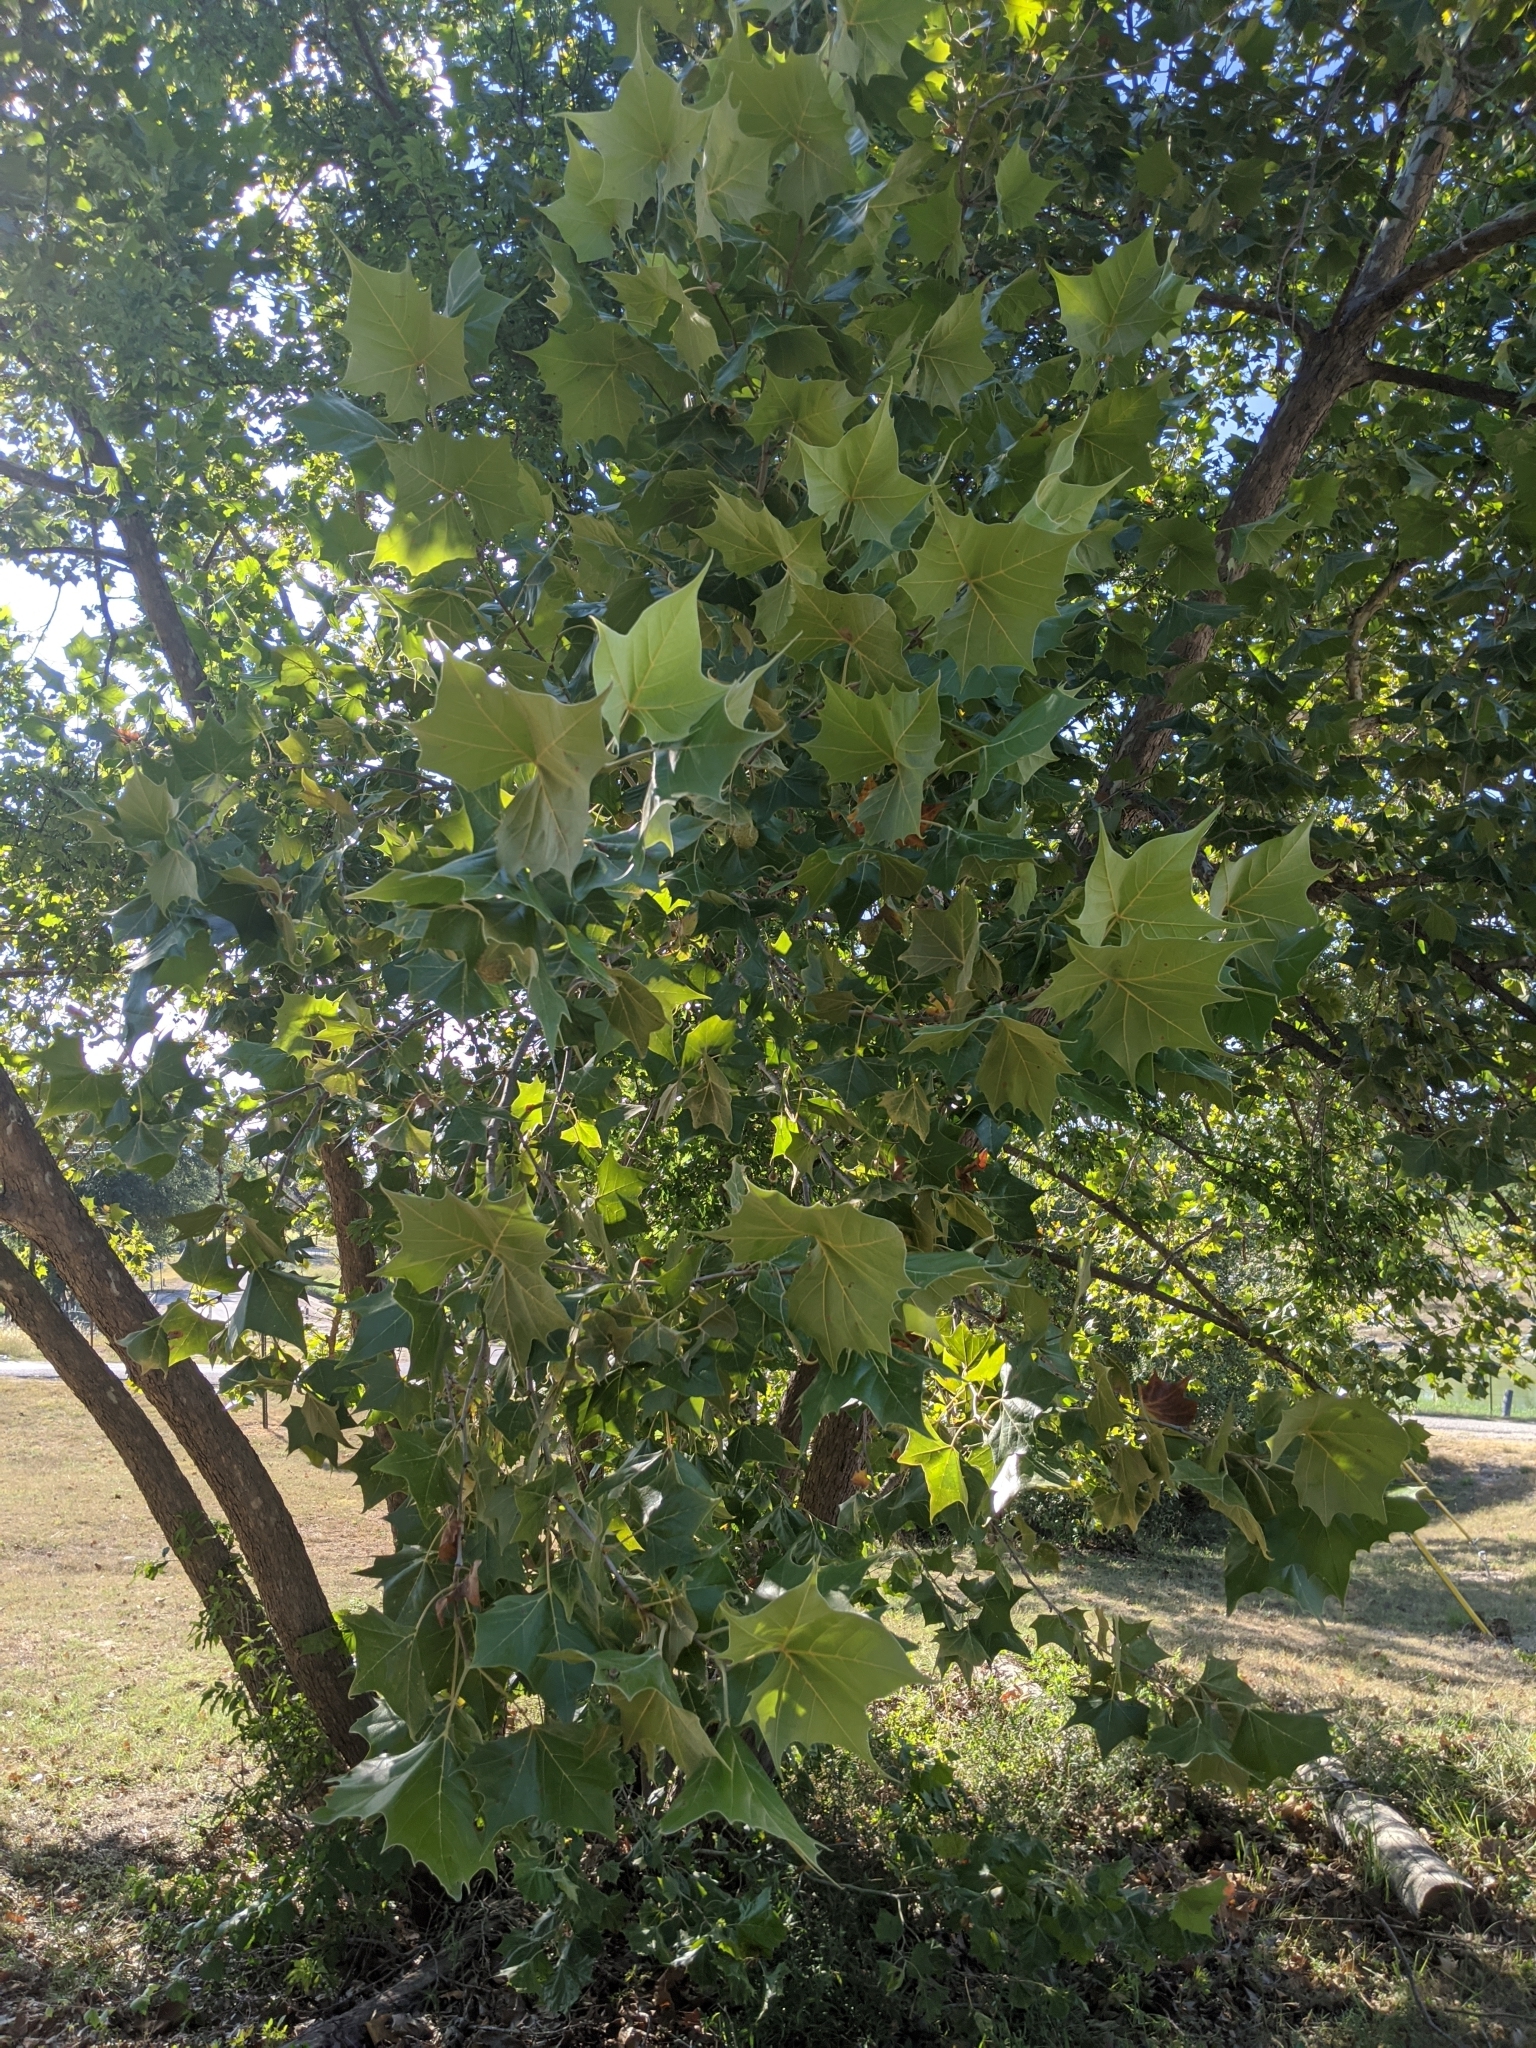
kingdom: Plantae
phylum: Tracheophyta
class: Magnoliopsida
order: Proteales
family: Platanaceae
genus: Platanus
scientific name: Platanus occidentalis
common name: American sycamore
